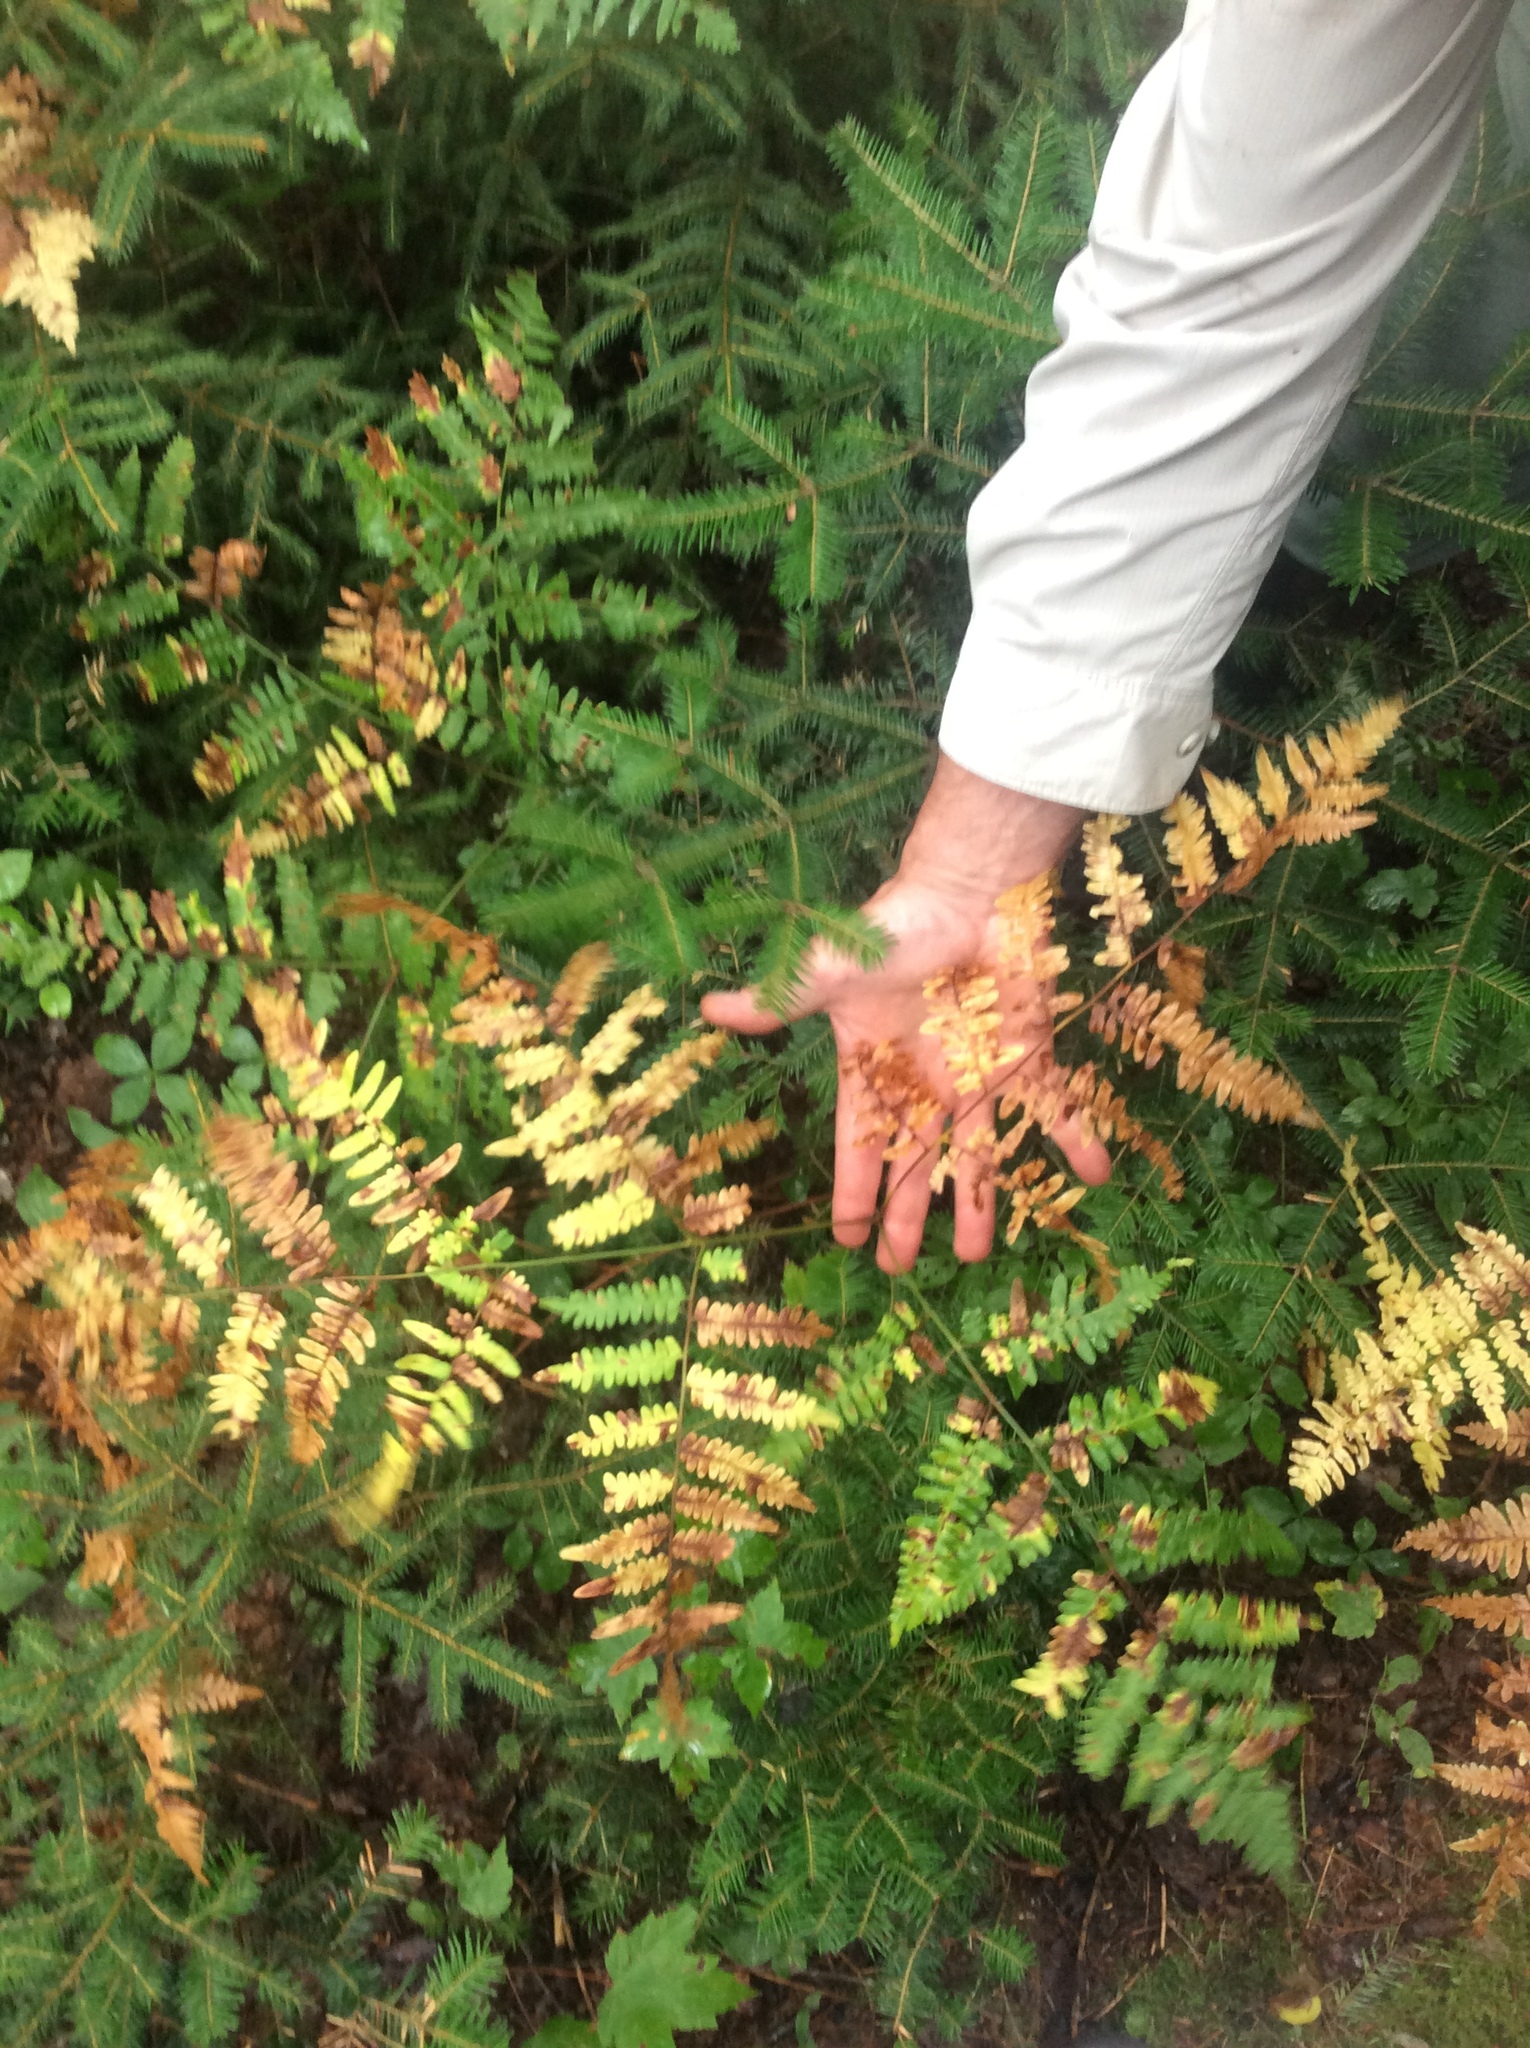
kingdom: Plantae
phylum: Tracheophyta
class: Polypodiopsida
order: Polypodiales
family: Dennstaedtiaceae
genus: Pteridium
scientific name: Pteridium aquilinum
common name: Bracken
